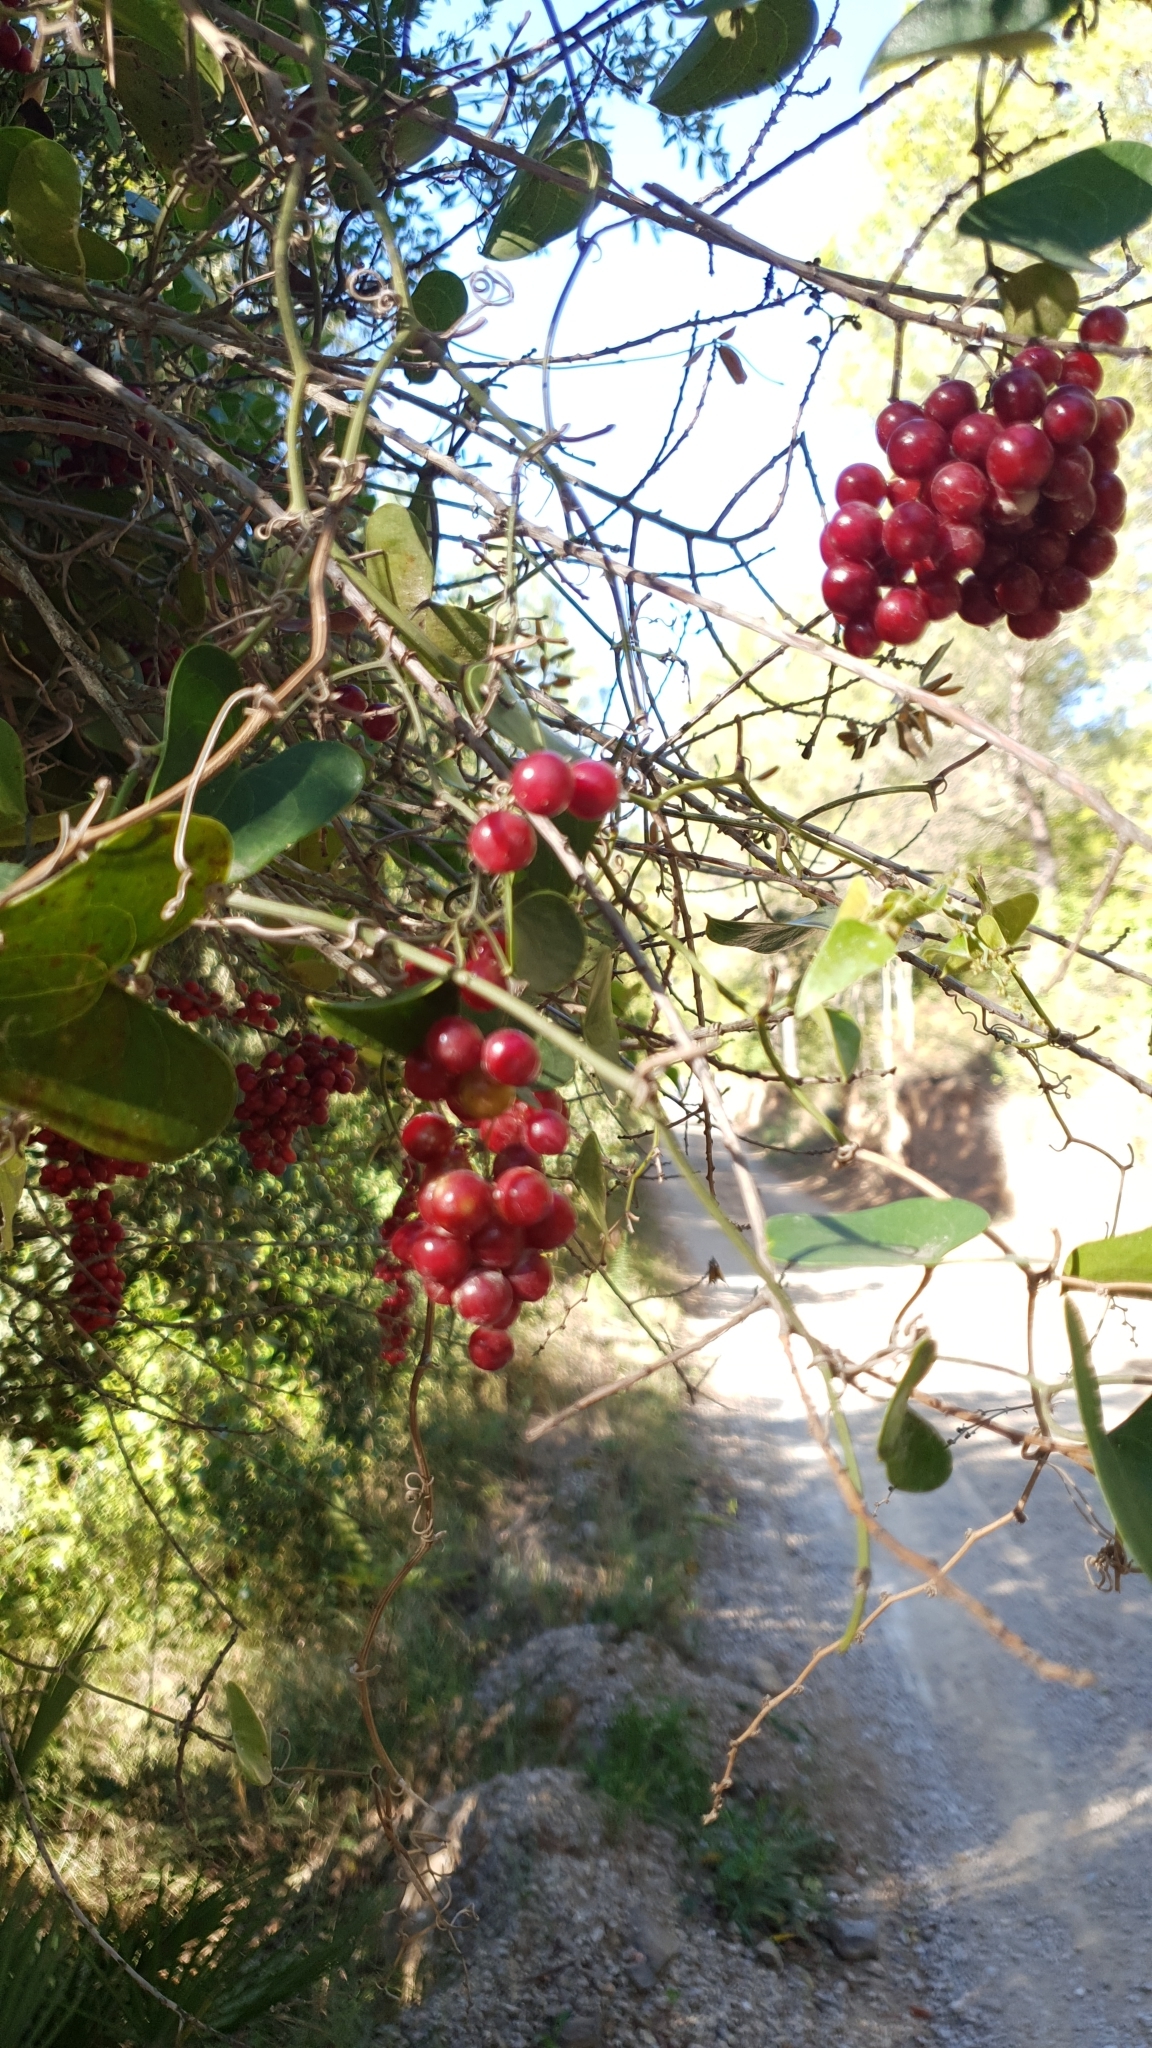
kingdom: Plantae
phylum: Tracheophyta
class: Liliopsida
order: Liliales
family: Smilacaceae
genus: Smilax
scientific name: Smilax aspera
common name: Common smilax
